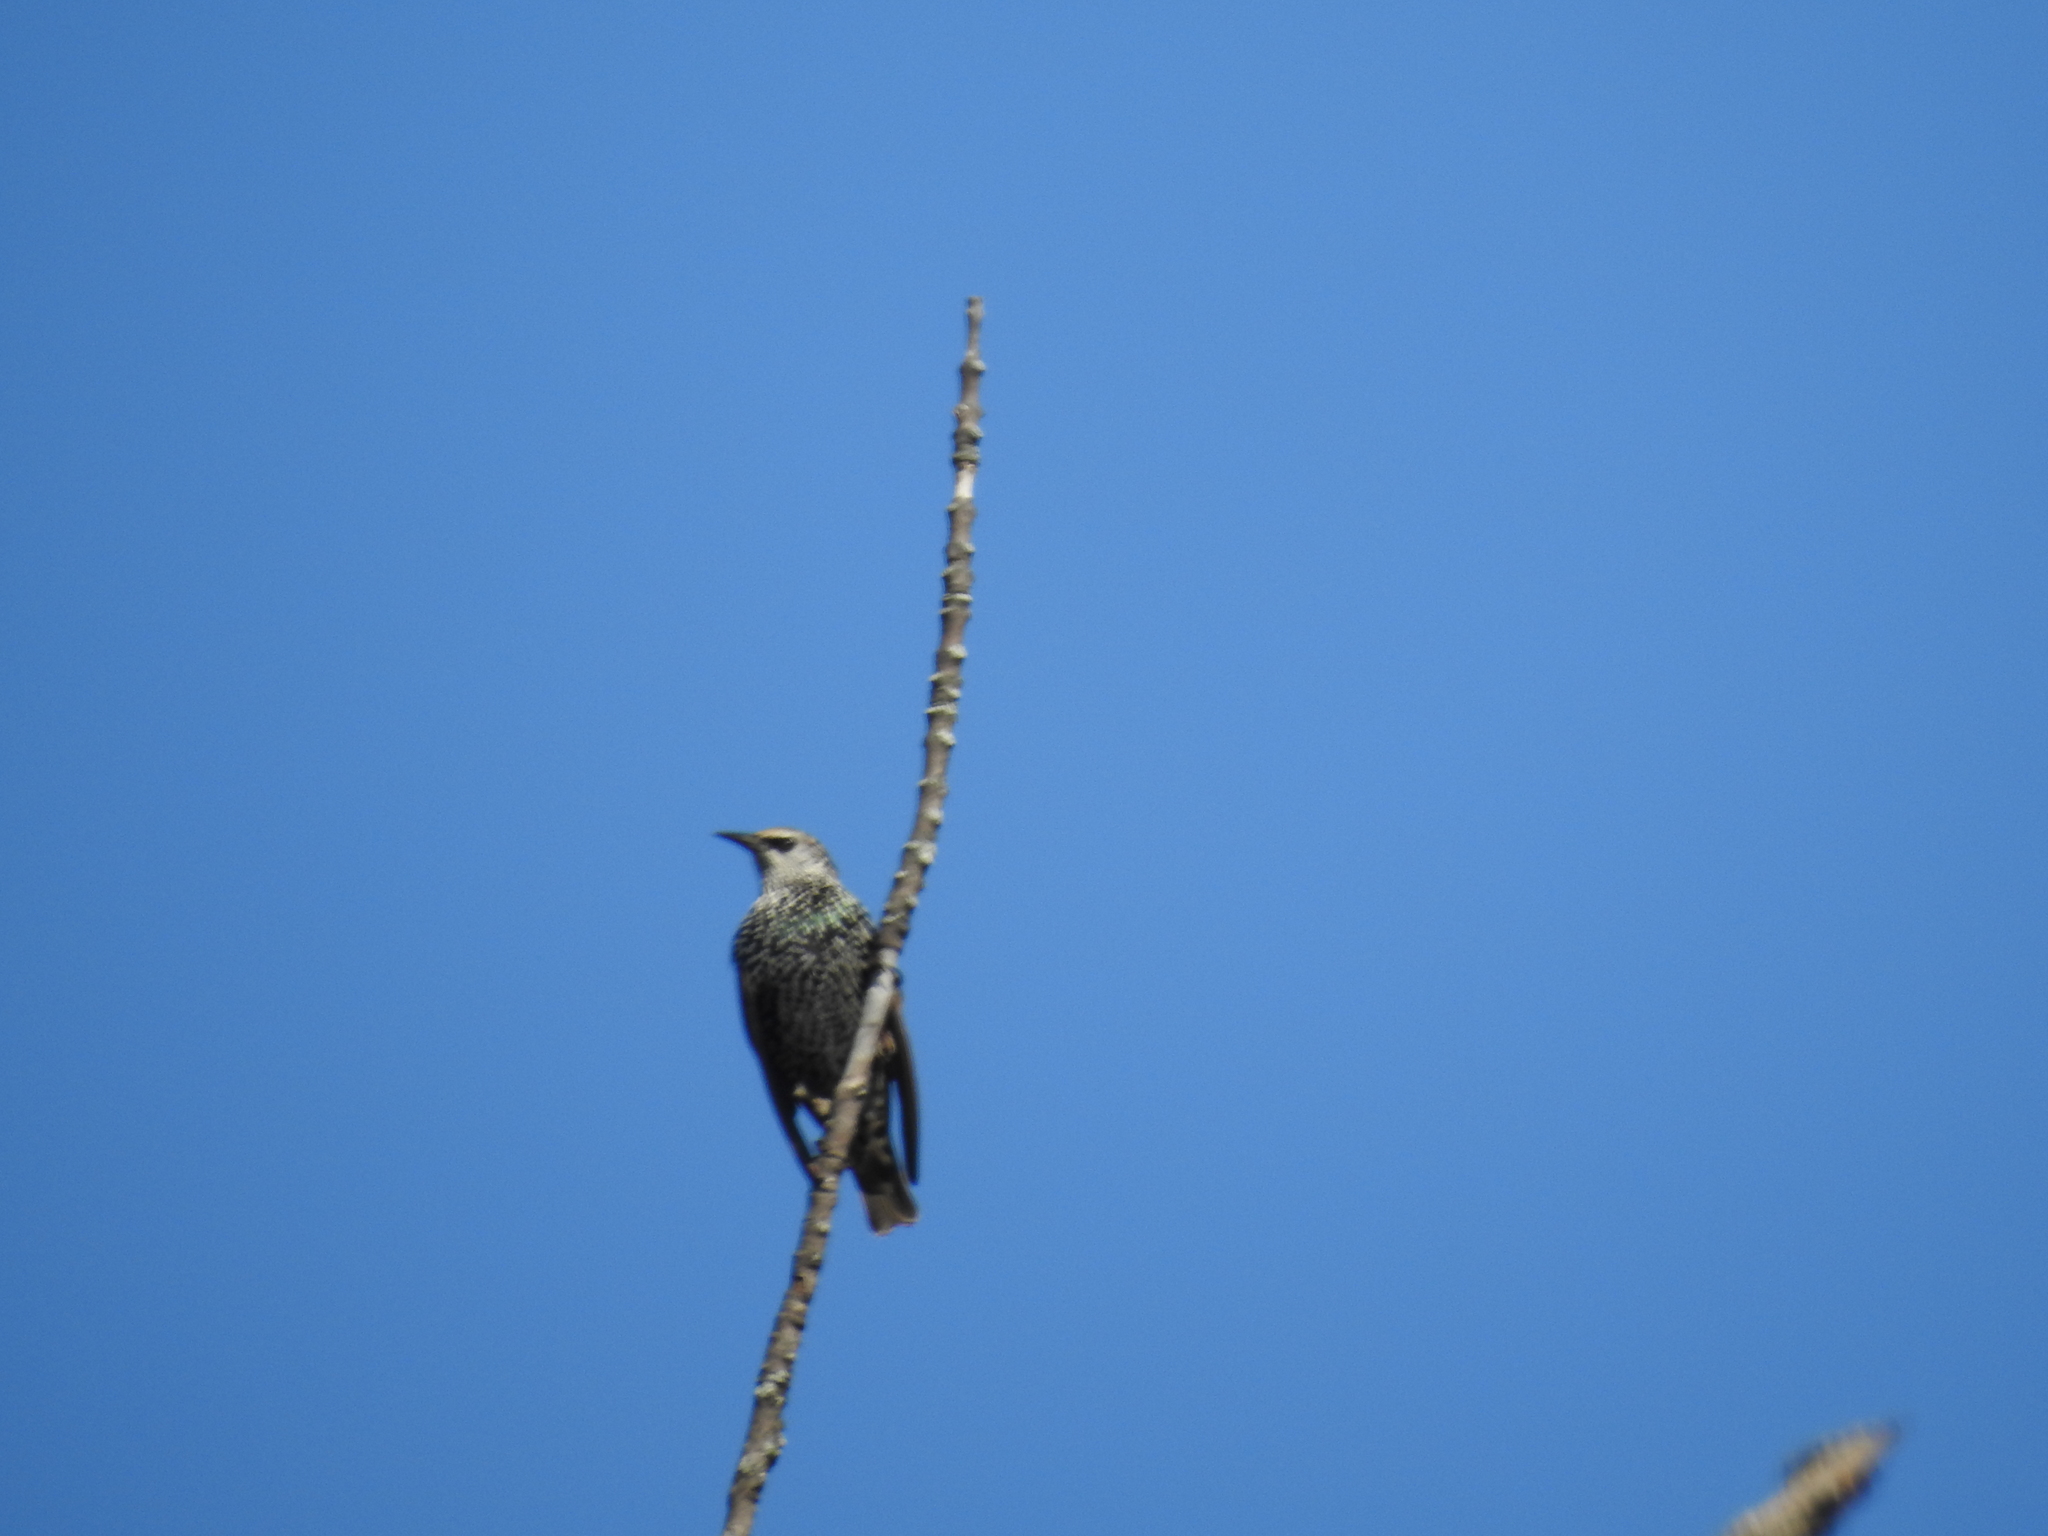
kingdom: Animalia
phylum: Chordata
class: Aves
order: Passeriformes
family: Sturnidae
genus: Sturnus
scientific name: Sturnus vulgaris
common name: Common starling
